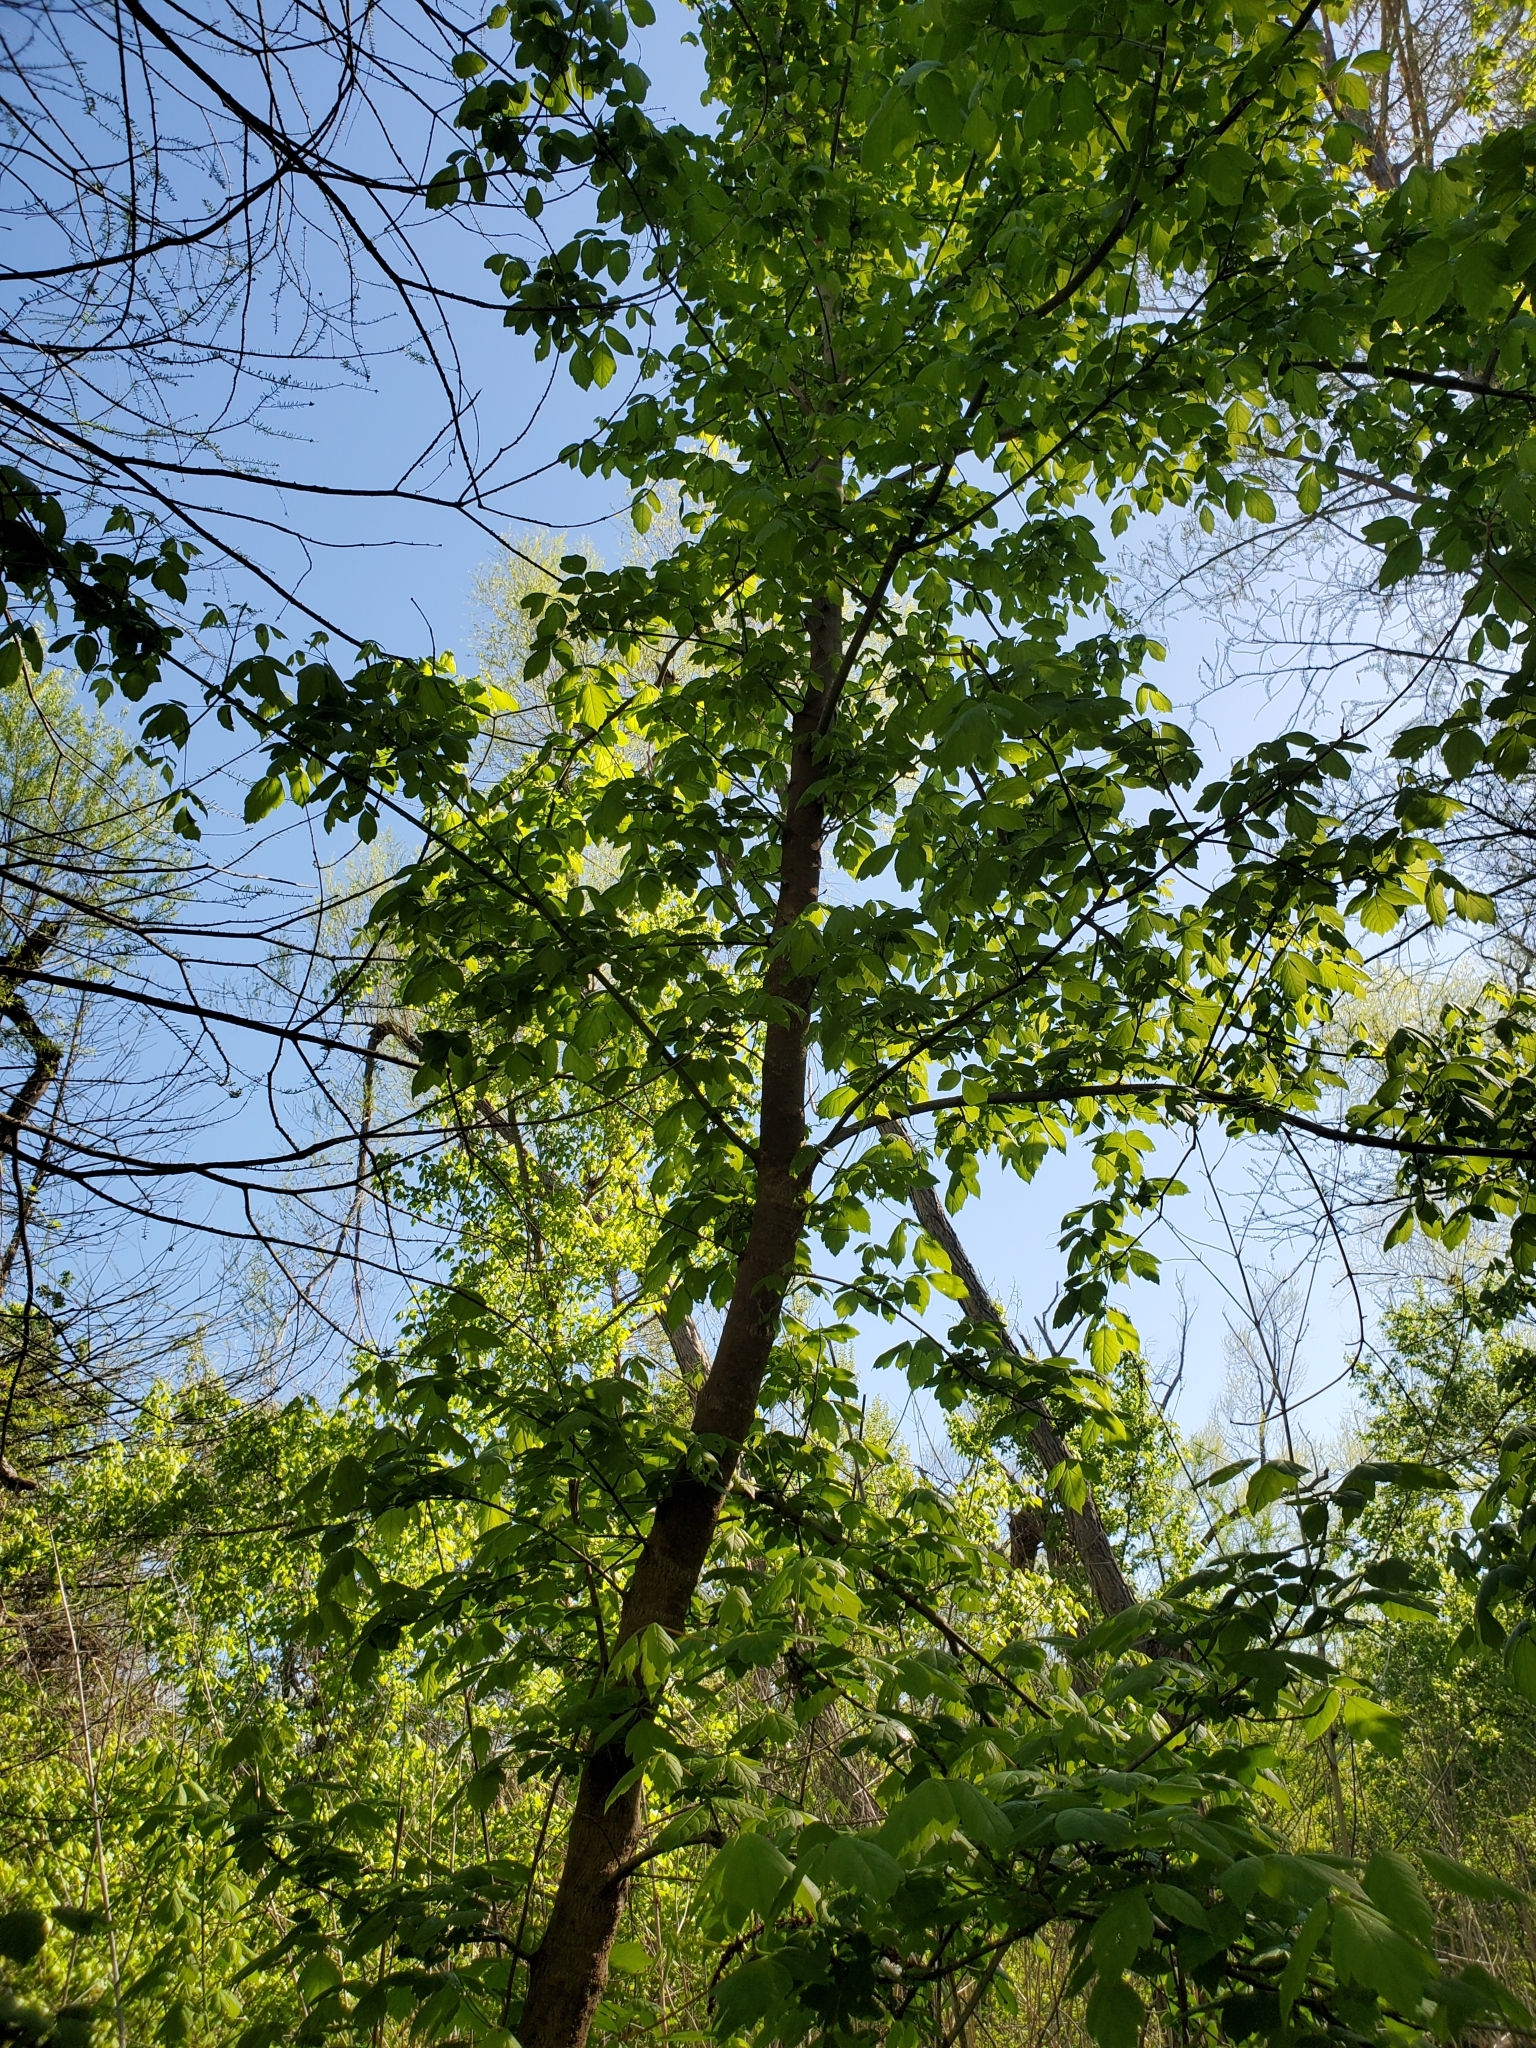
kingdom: Plantae
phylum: Tracheophyta
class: Magnoliopsida
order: Sapindales
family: Sapindaceae
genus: Acer
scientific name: Acer negundo
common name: Ashleaf maple
